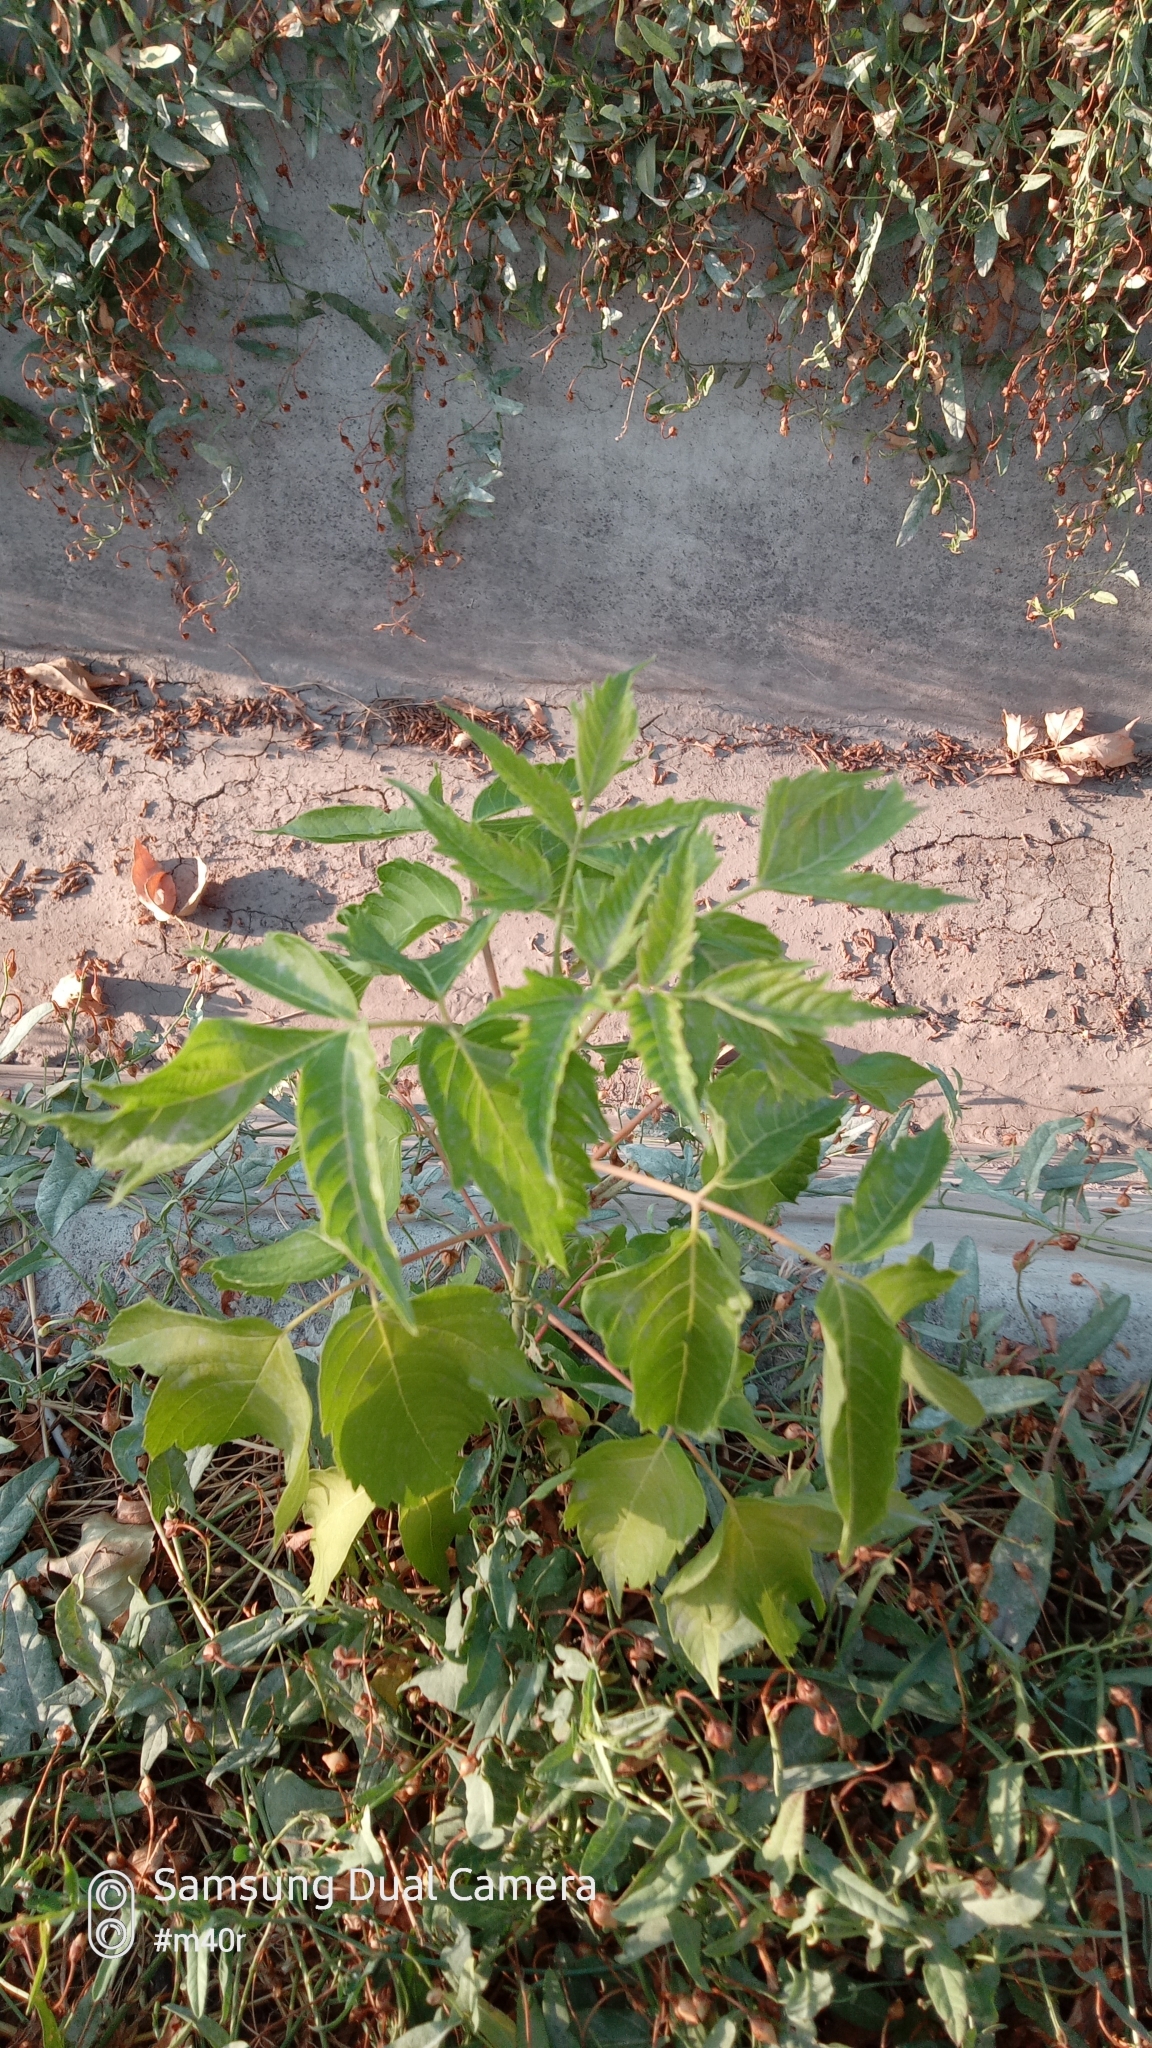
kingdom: Plantae
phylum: Tracheophyta
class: Magnoliopsida
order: Sapindales
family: Sapindaceae
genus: Acer
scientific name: Acer negundo
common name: Ashleaf maple
